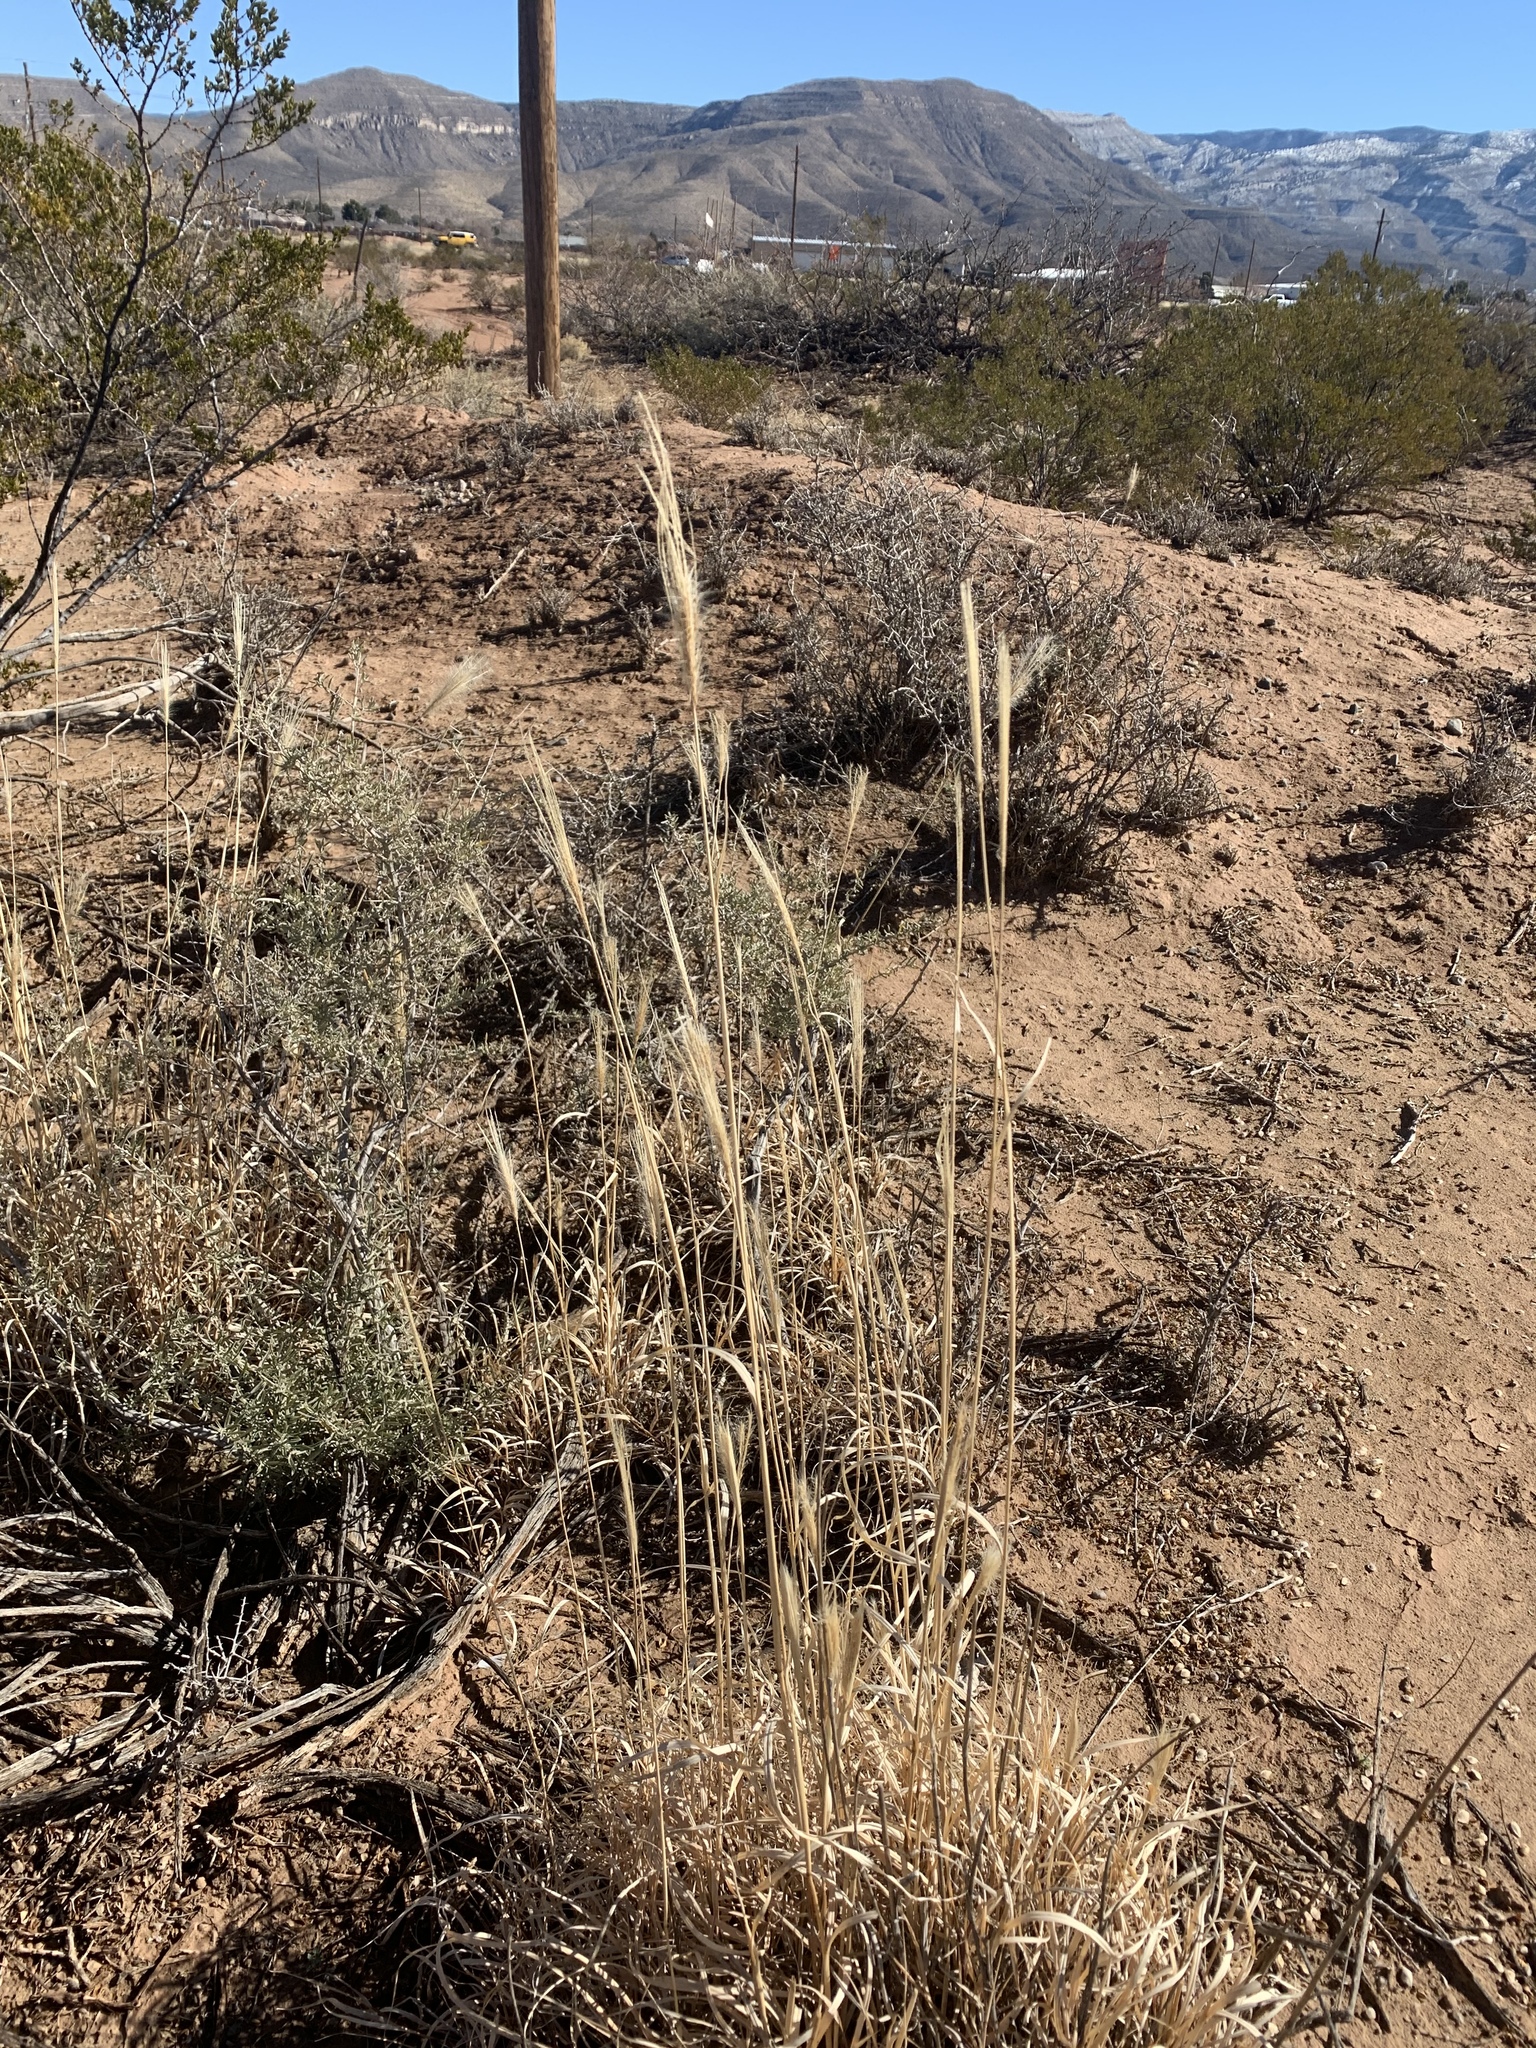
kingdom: Plantae
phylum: Tracheophyta
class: Liliopsida
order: Poales
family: Poaceae
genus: Chloris
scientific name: Chloris virgata
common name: Feathery rhodes-grass
